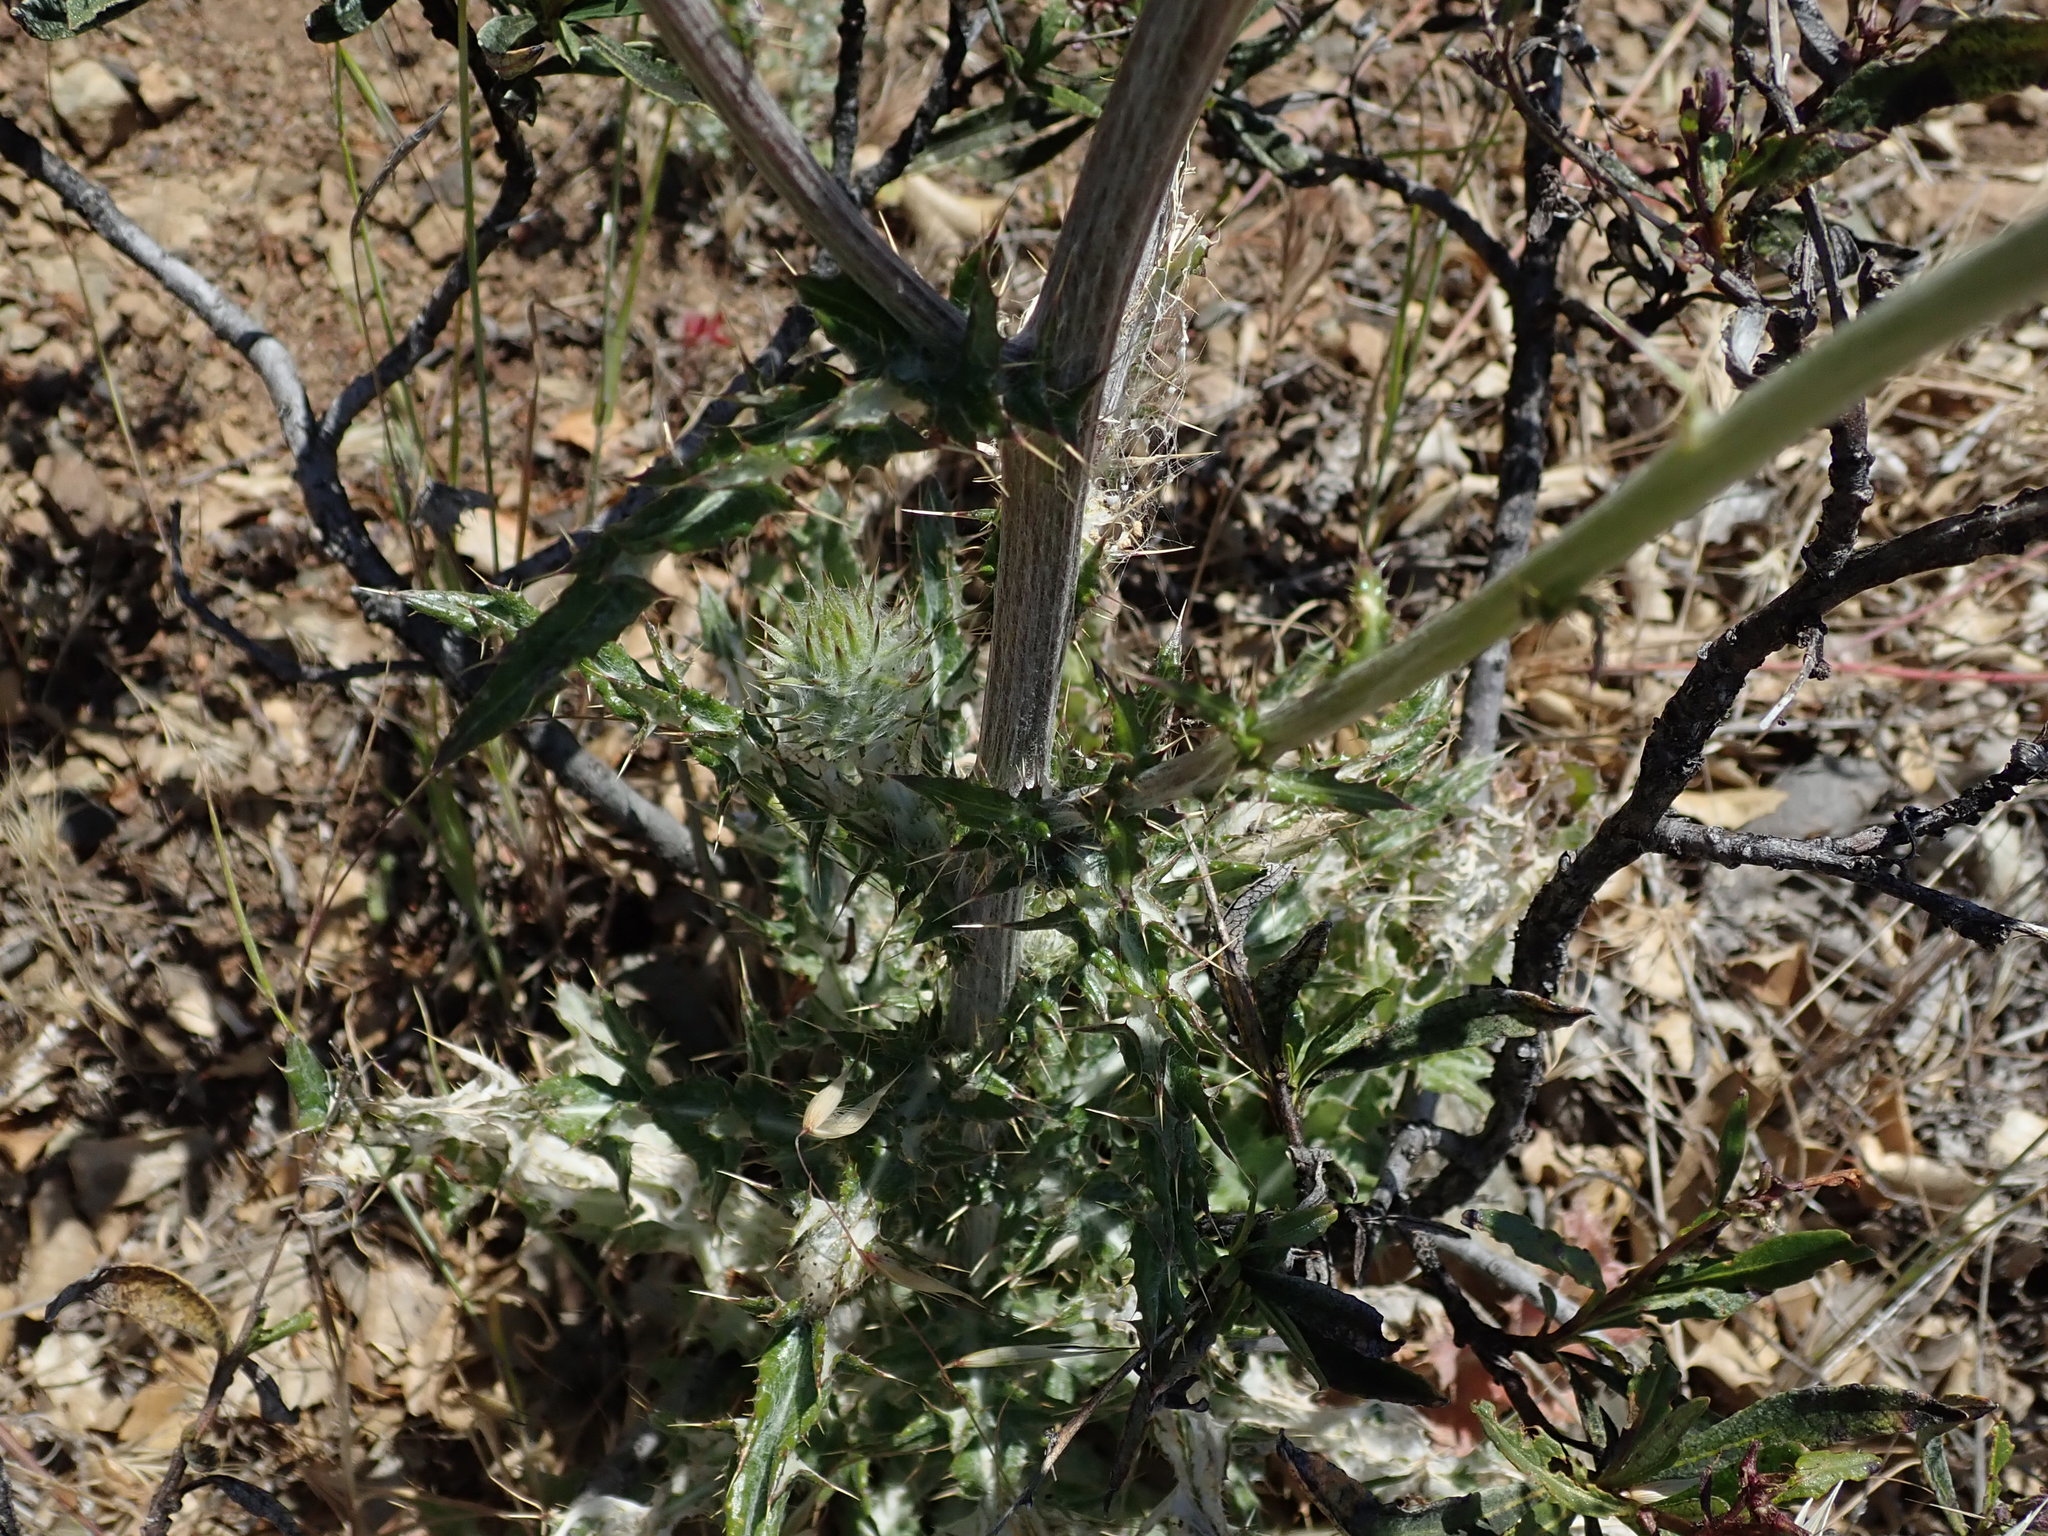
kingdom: Plantae
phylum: Tracheophyta
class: Magnoliopsida
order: Asterales
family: Asteraceae
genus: Cirsium
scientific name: Cirsium occidentale
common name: Western thistle
